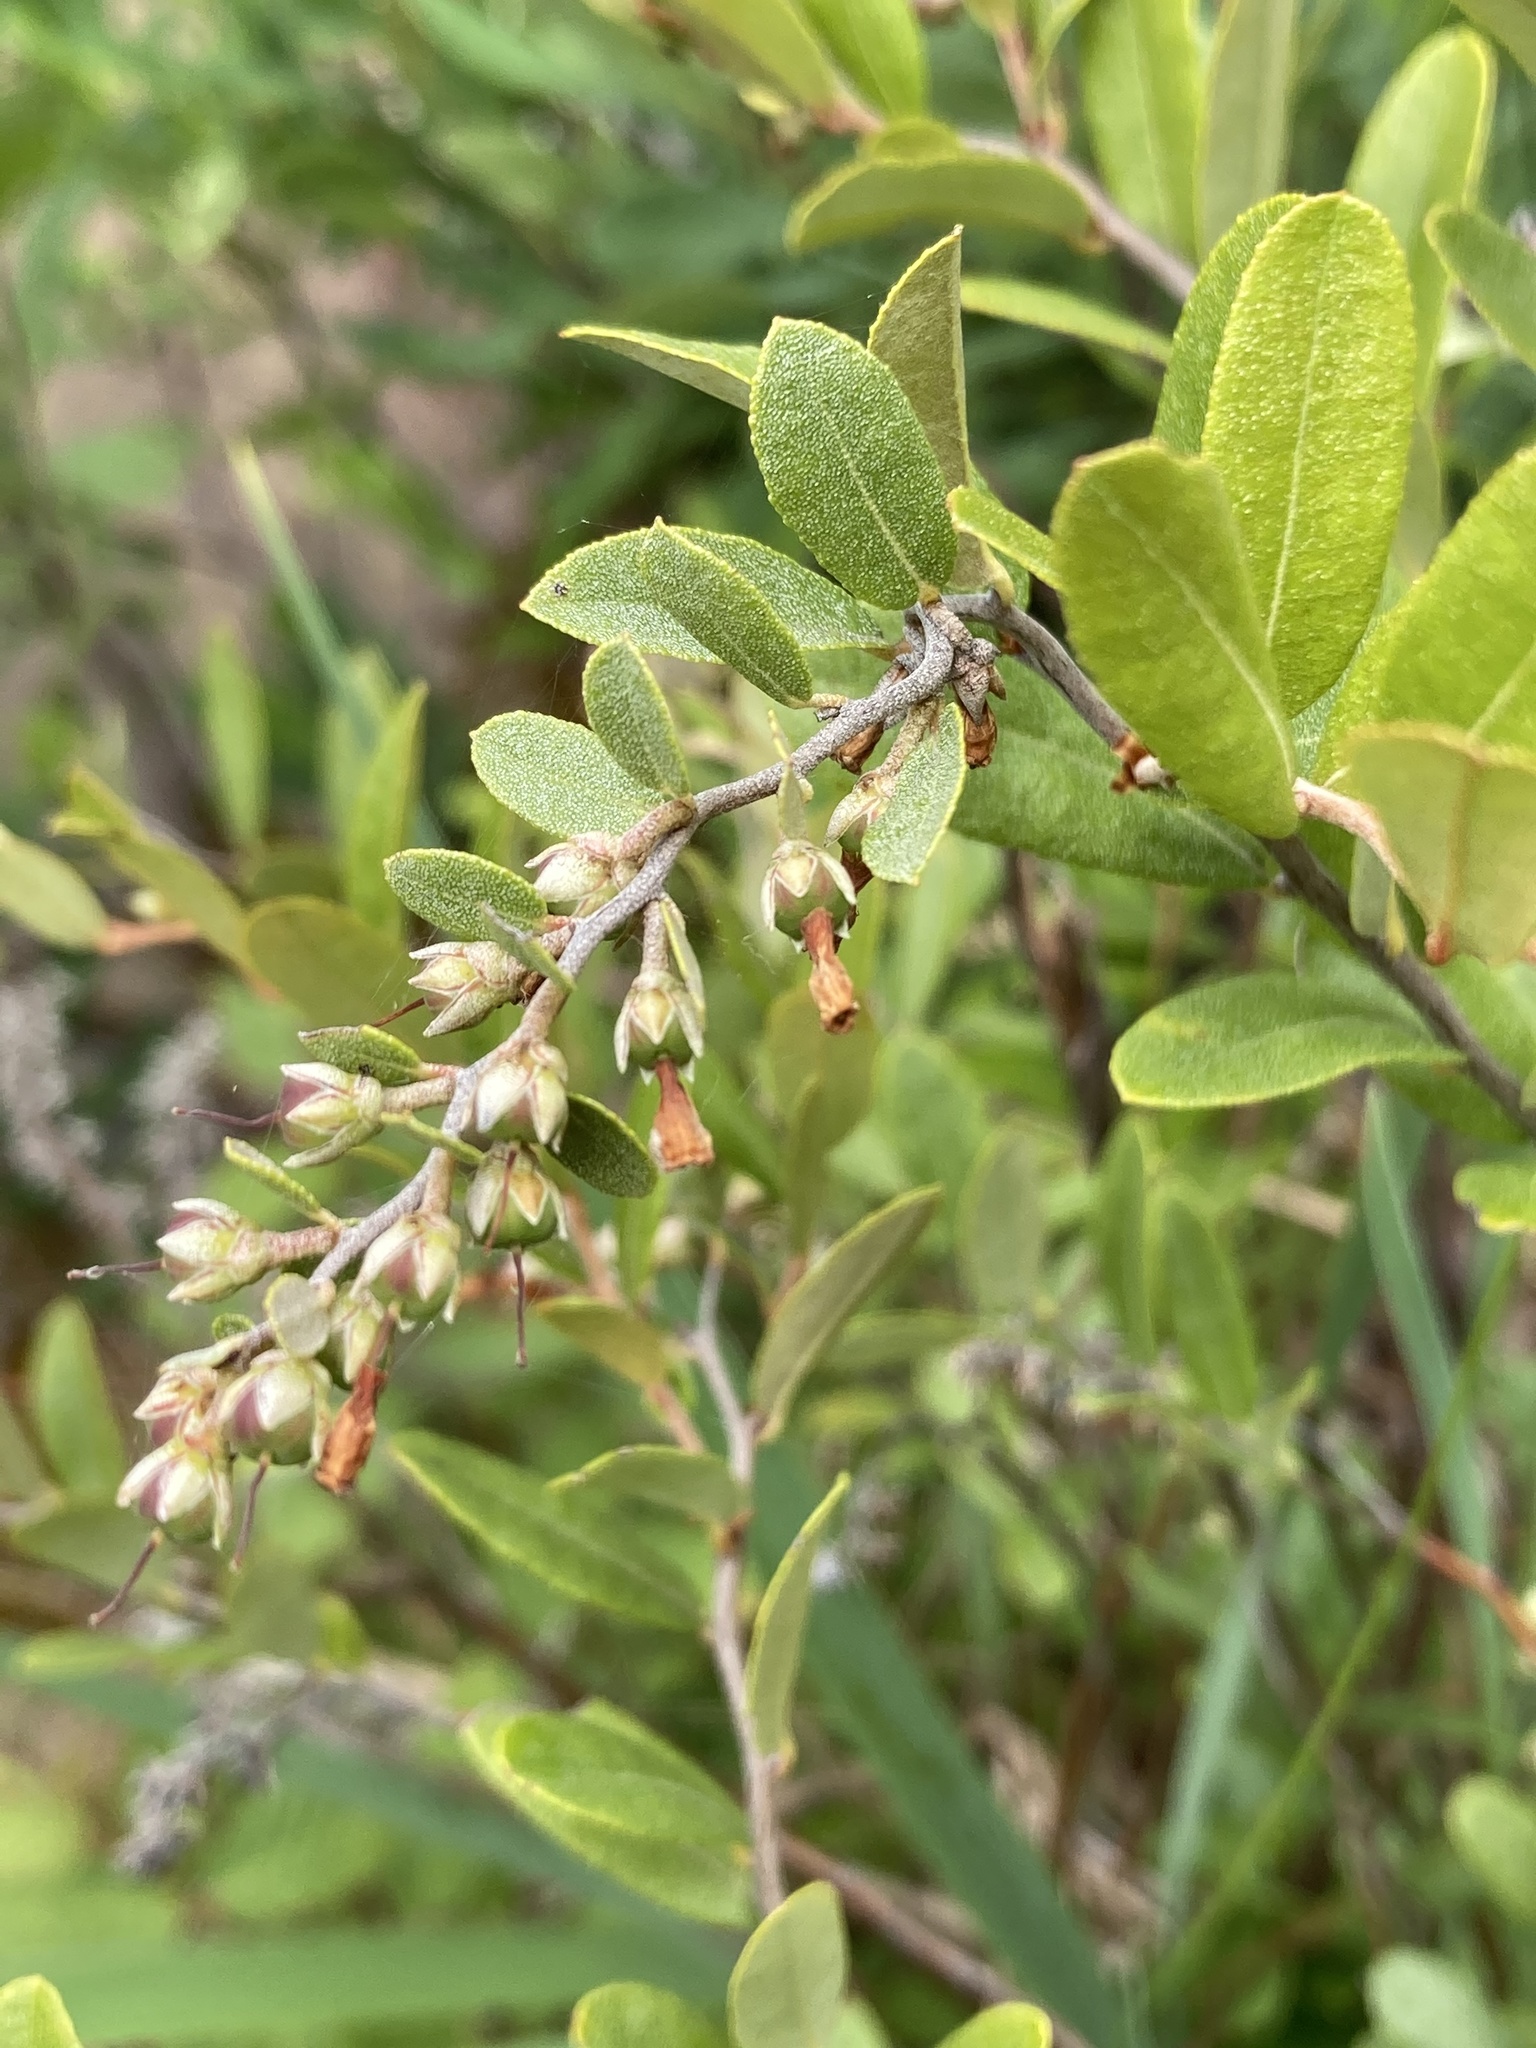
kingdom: Plantae
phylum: Tracheophyta
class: Magnoliopsida
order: Ericales
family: Ericaceae
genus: Chamaedaphne
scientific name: Chamaedaphne calyculata
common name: Leatherleaf
